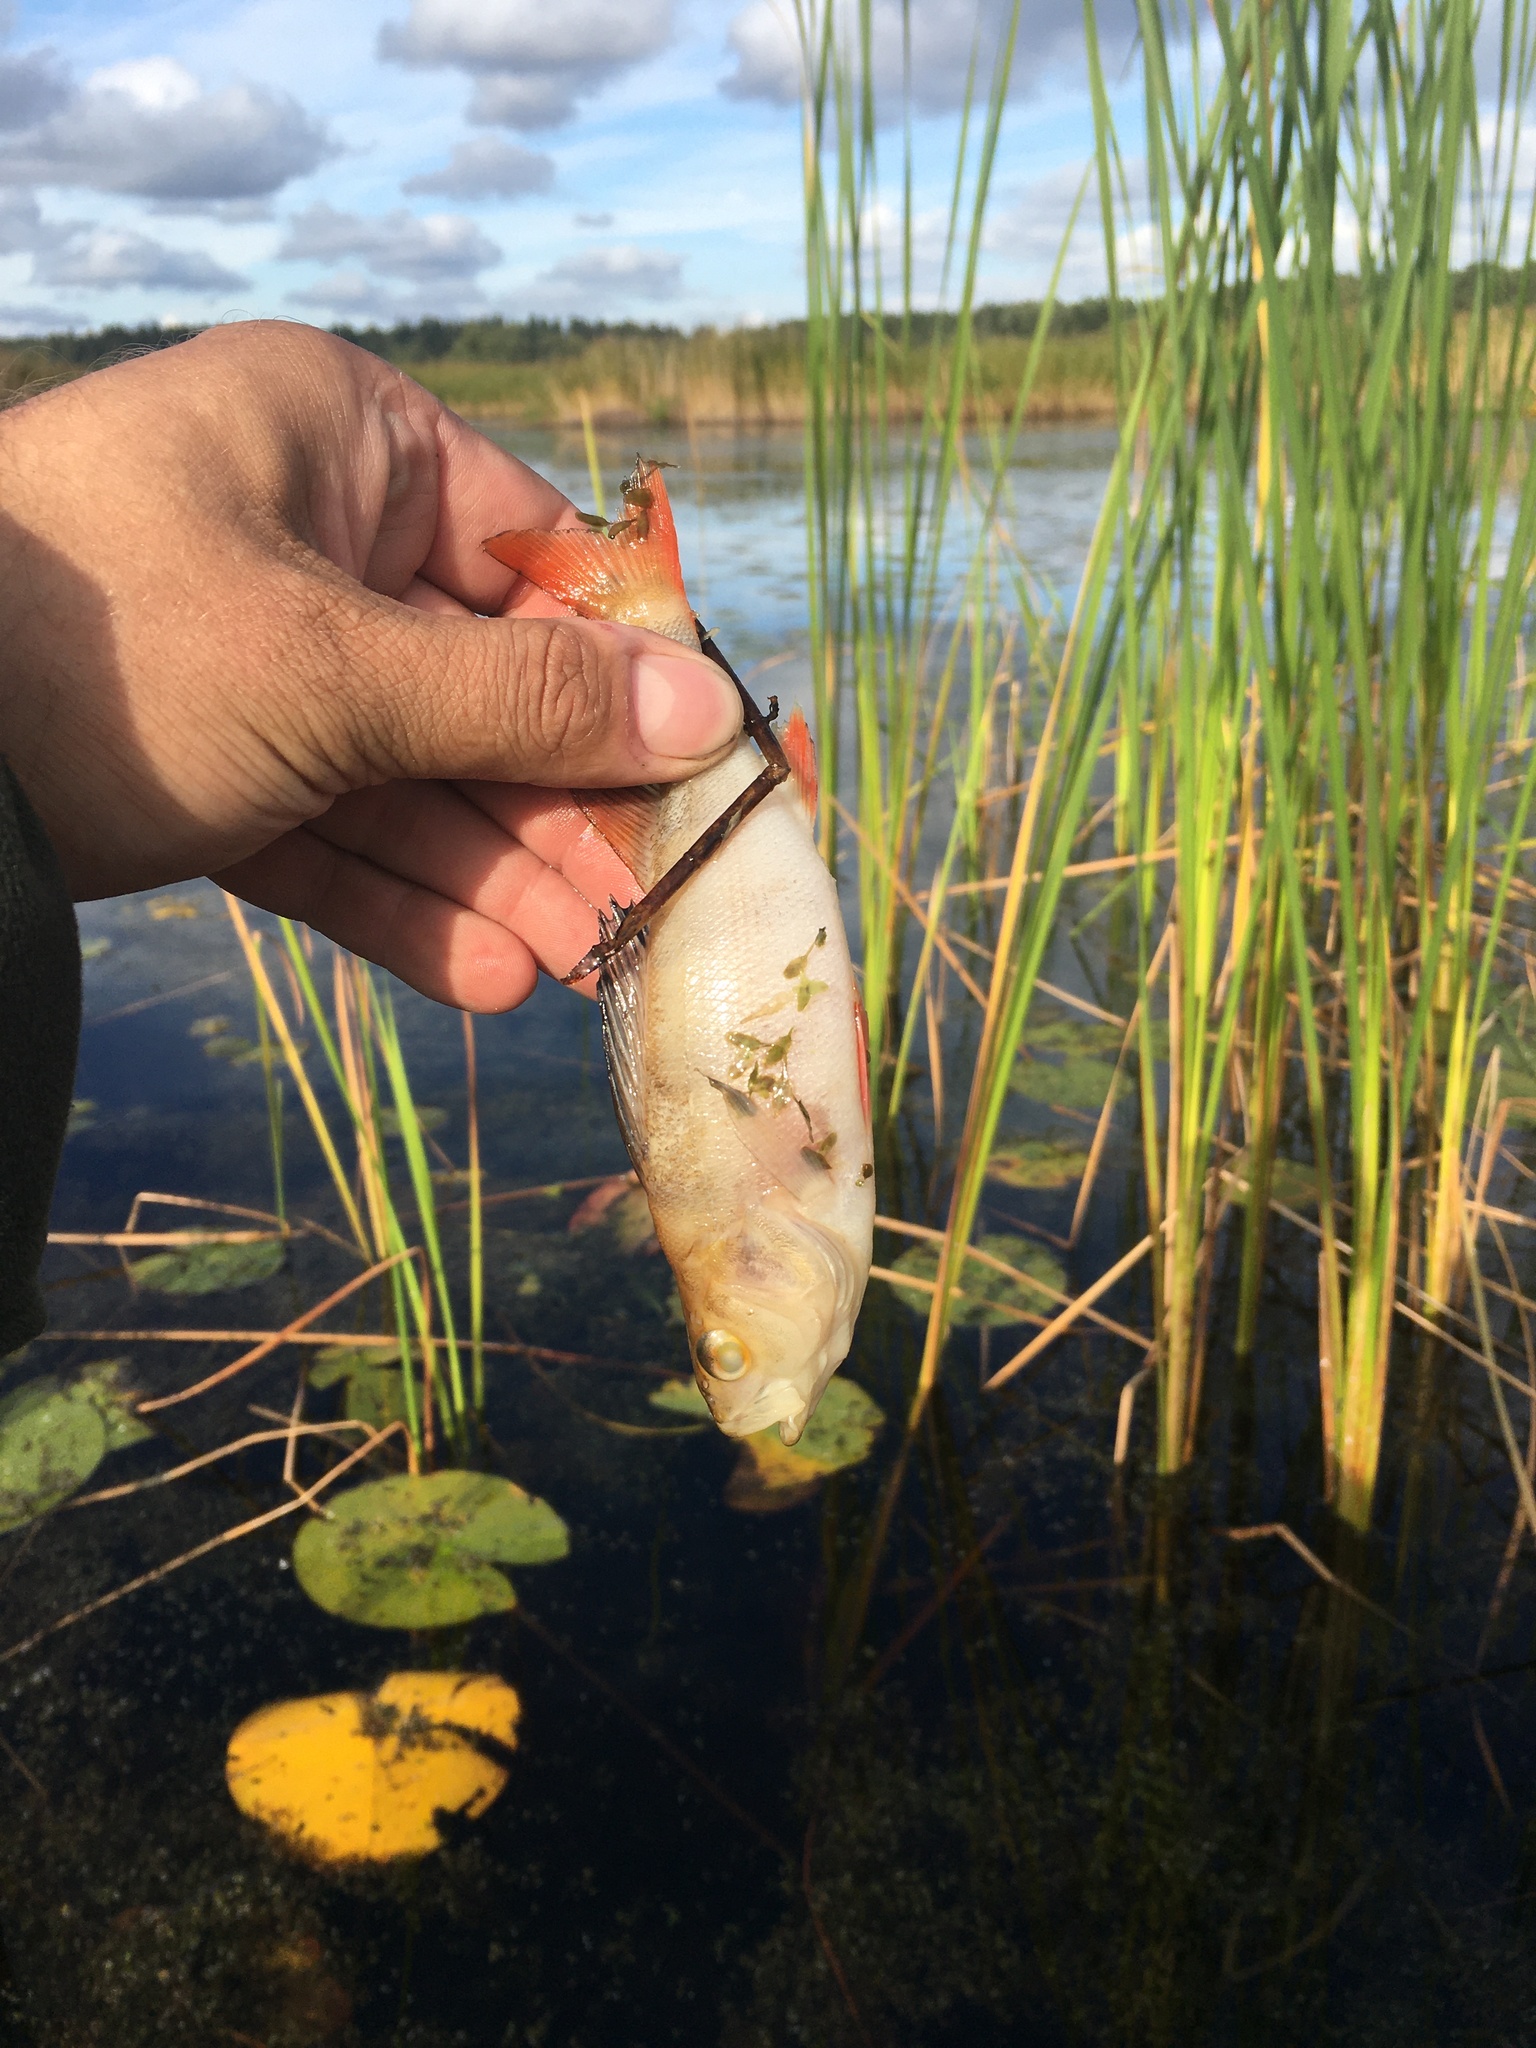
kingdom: Animalia
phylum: Chordata
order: Perciformes
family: Percidae
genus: Perca
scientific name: Perca fluviatilis
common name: Perch
